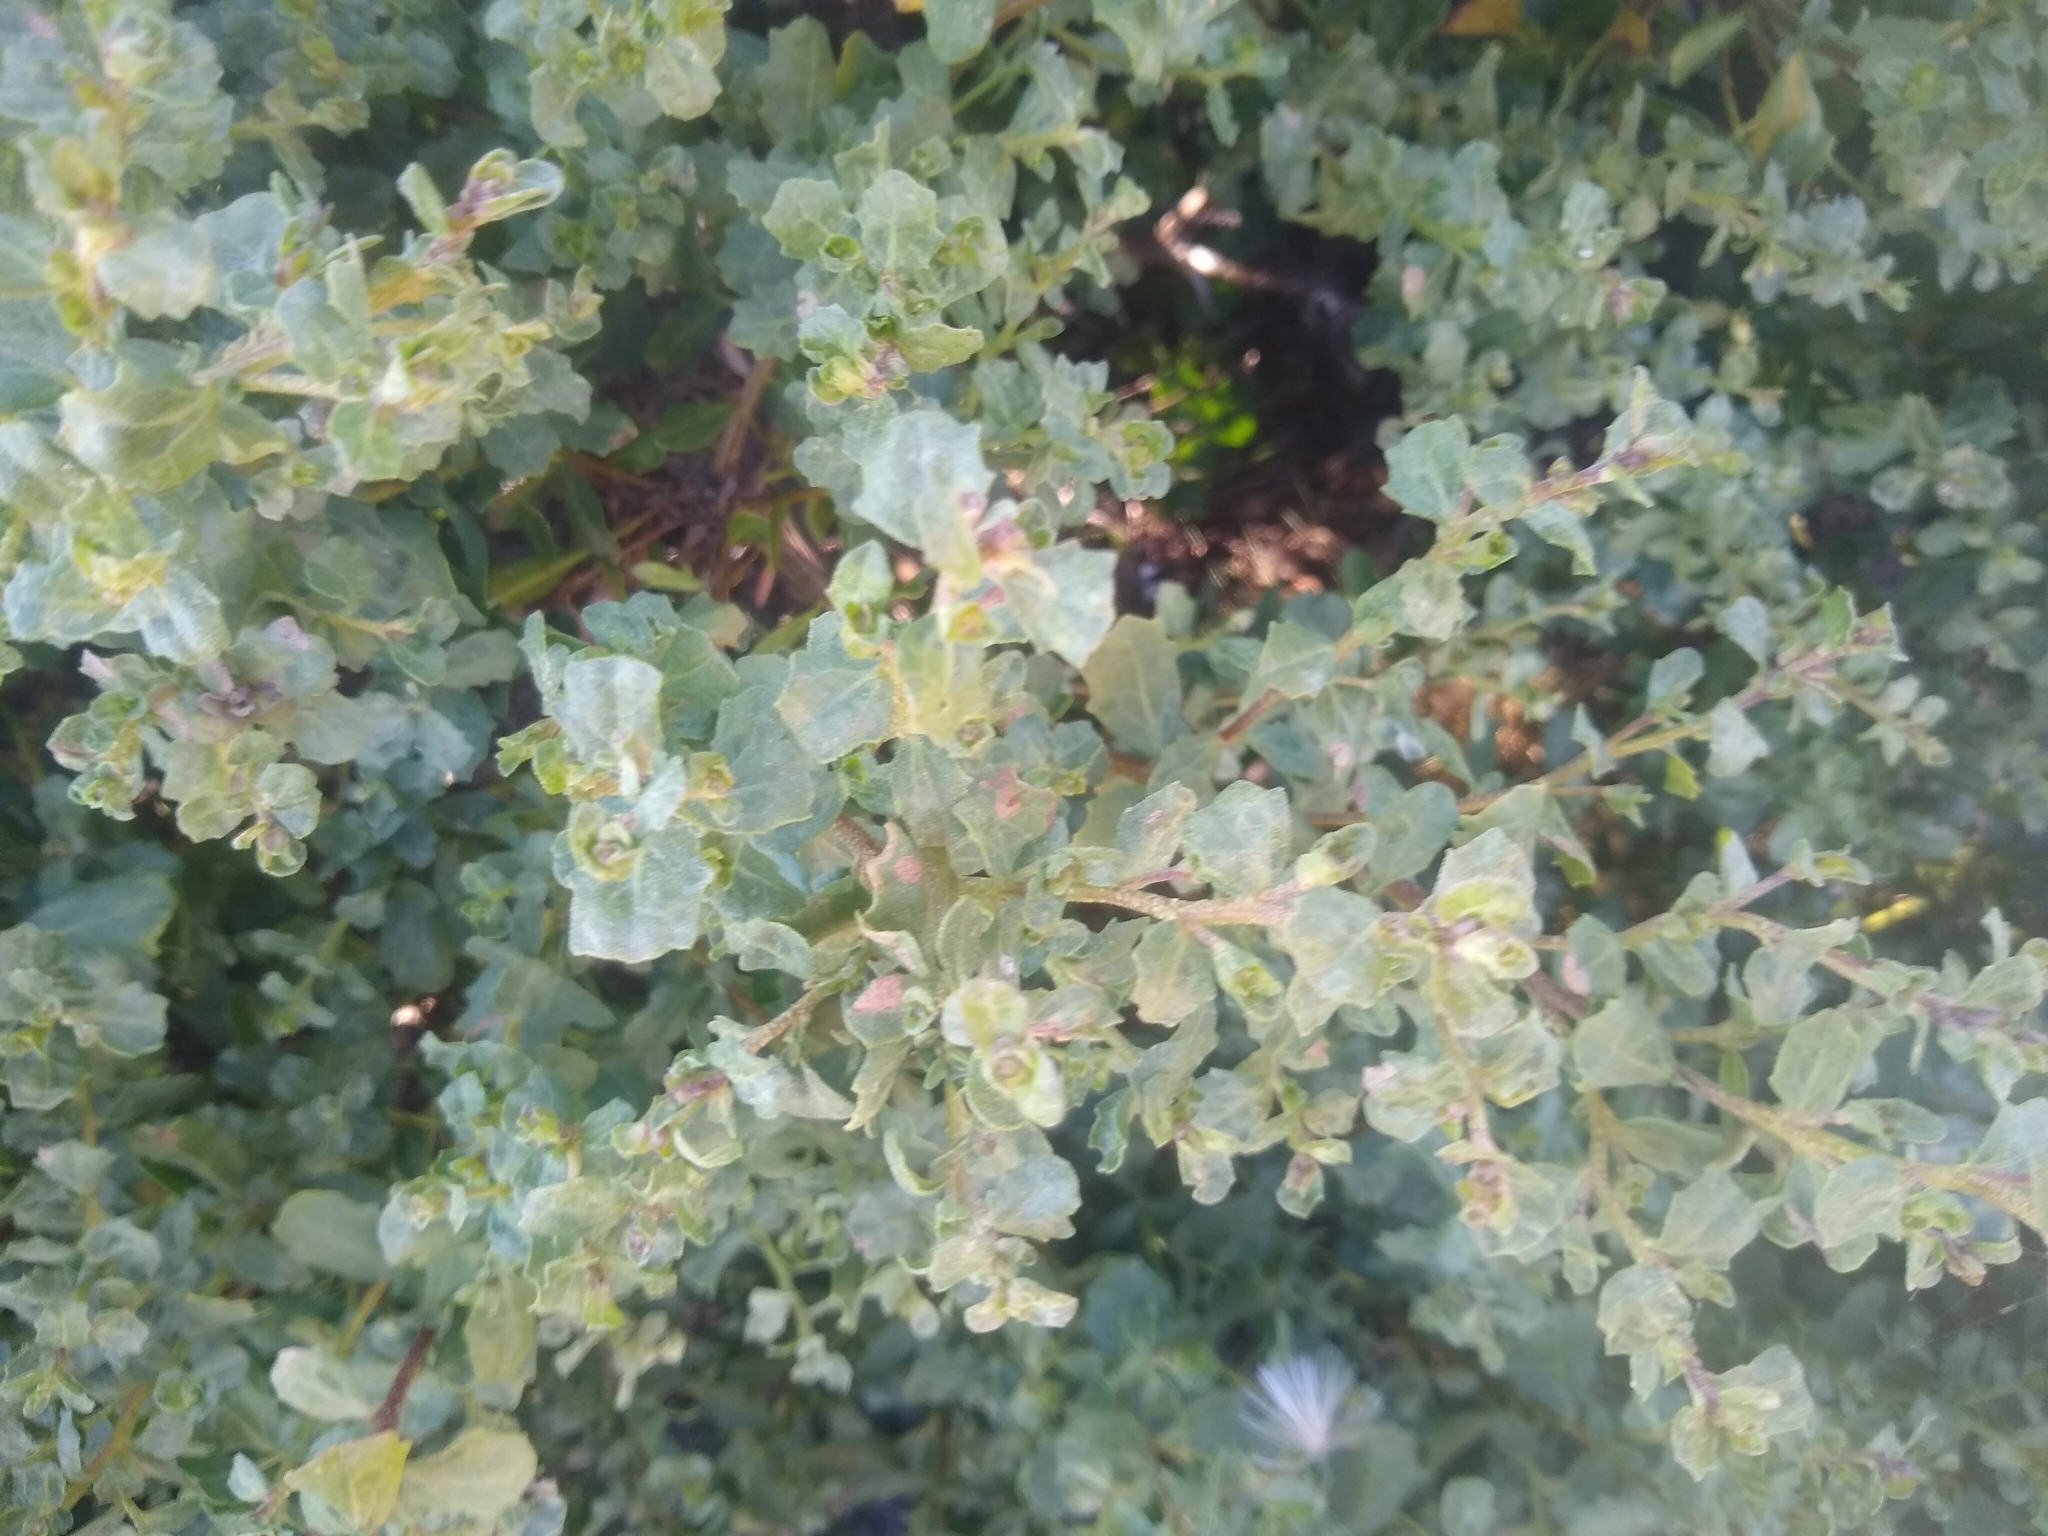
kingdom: Plantae
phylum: Tracheophyta
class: Magnoliopsida
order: Asterales
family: Asteraceae
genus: Baccharis
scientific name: Baccharis pilularis
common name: Coyotebrush
